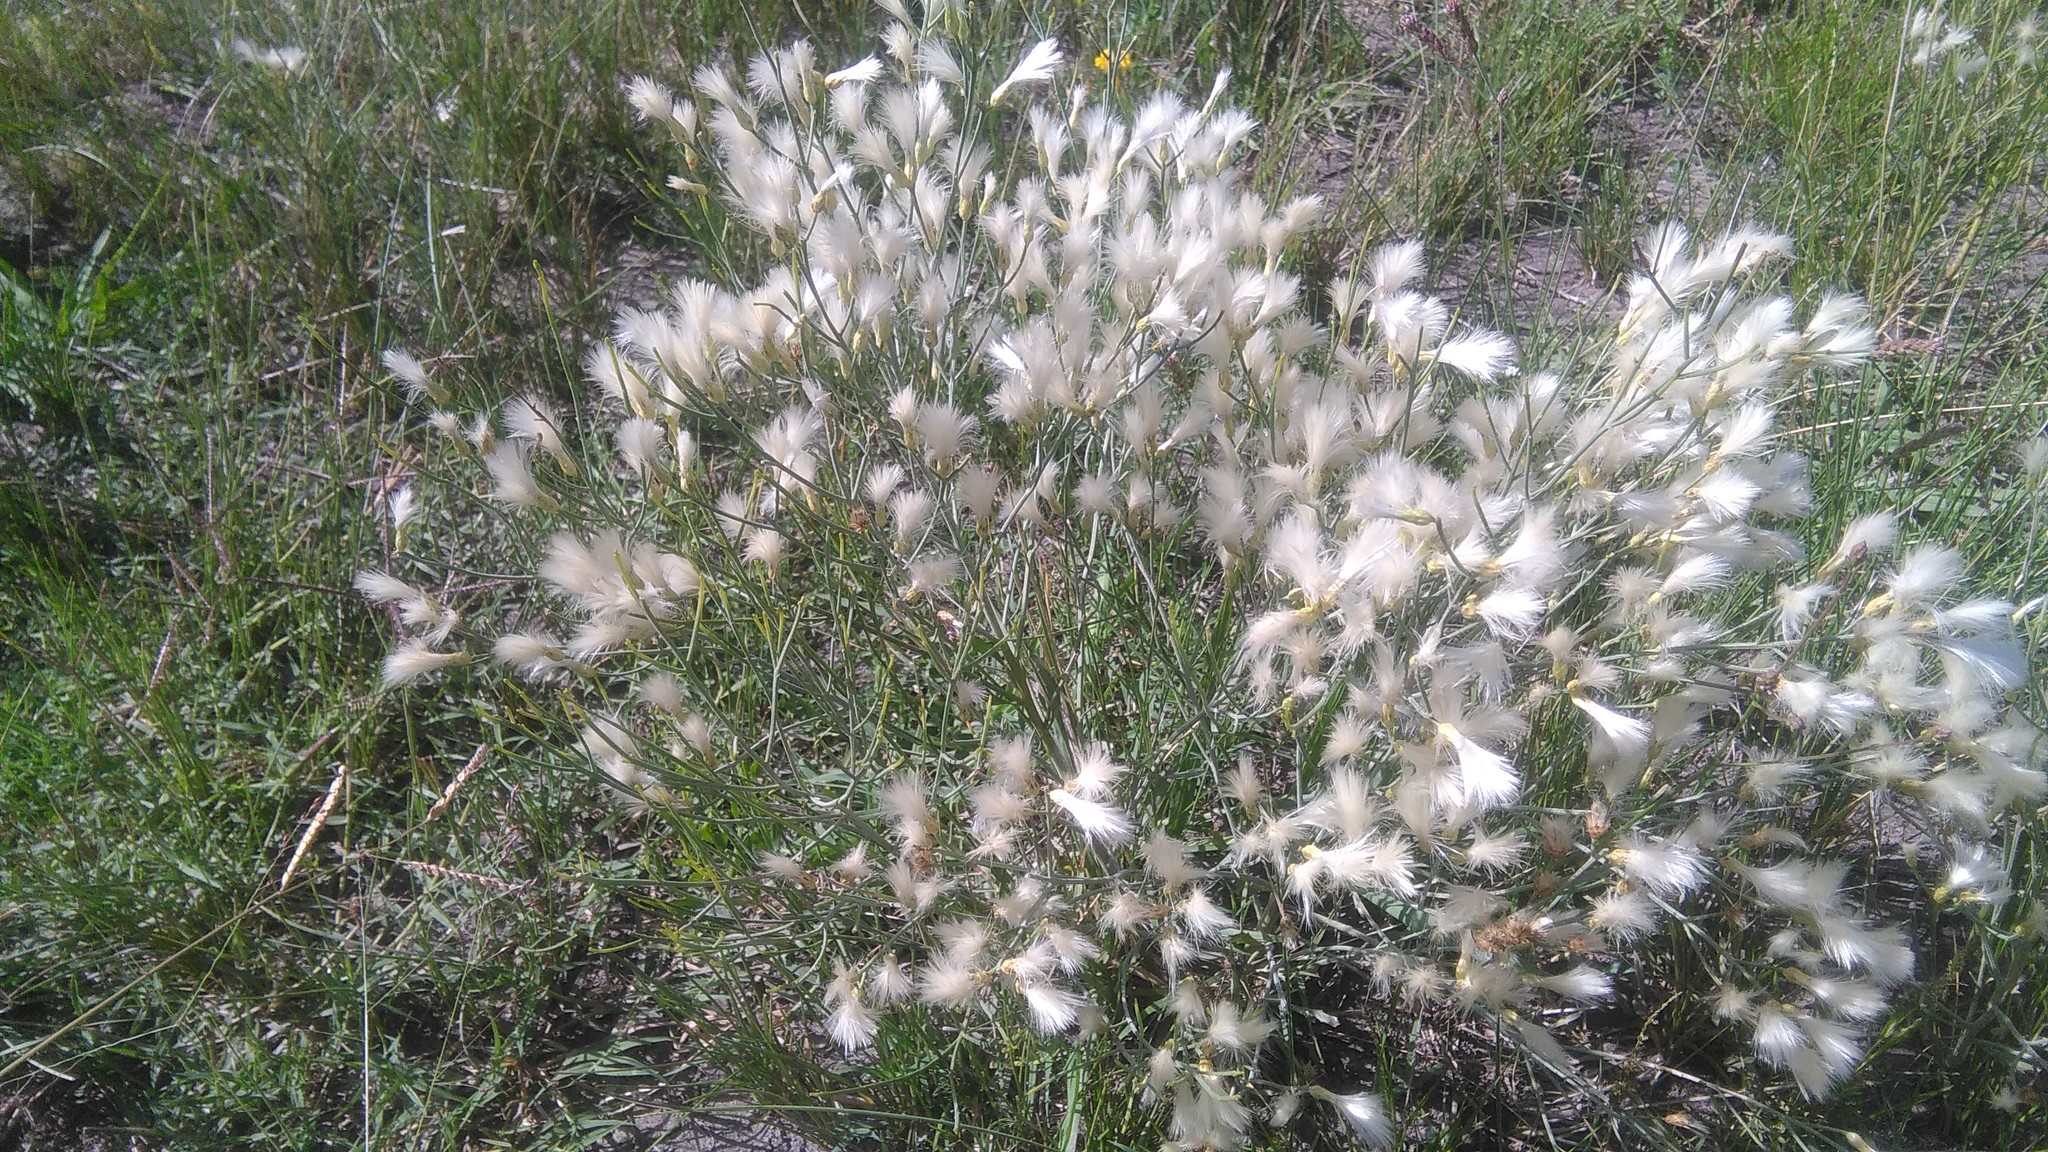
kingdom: Plantae
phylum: Tracheophyta
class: Magnoliopsida
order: Asterales
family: Asteraceae
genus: Baccharis
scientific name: Baccharis notosergila
